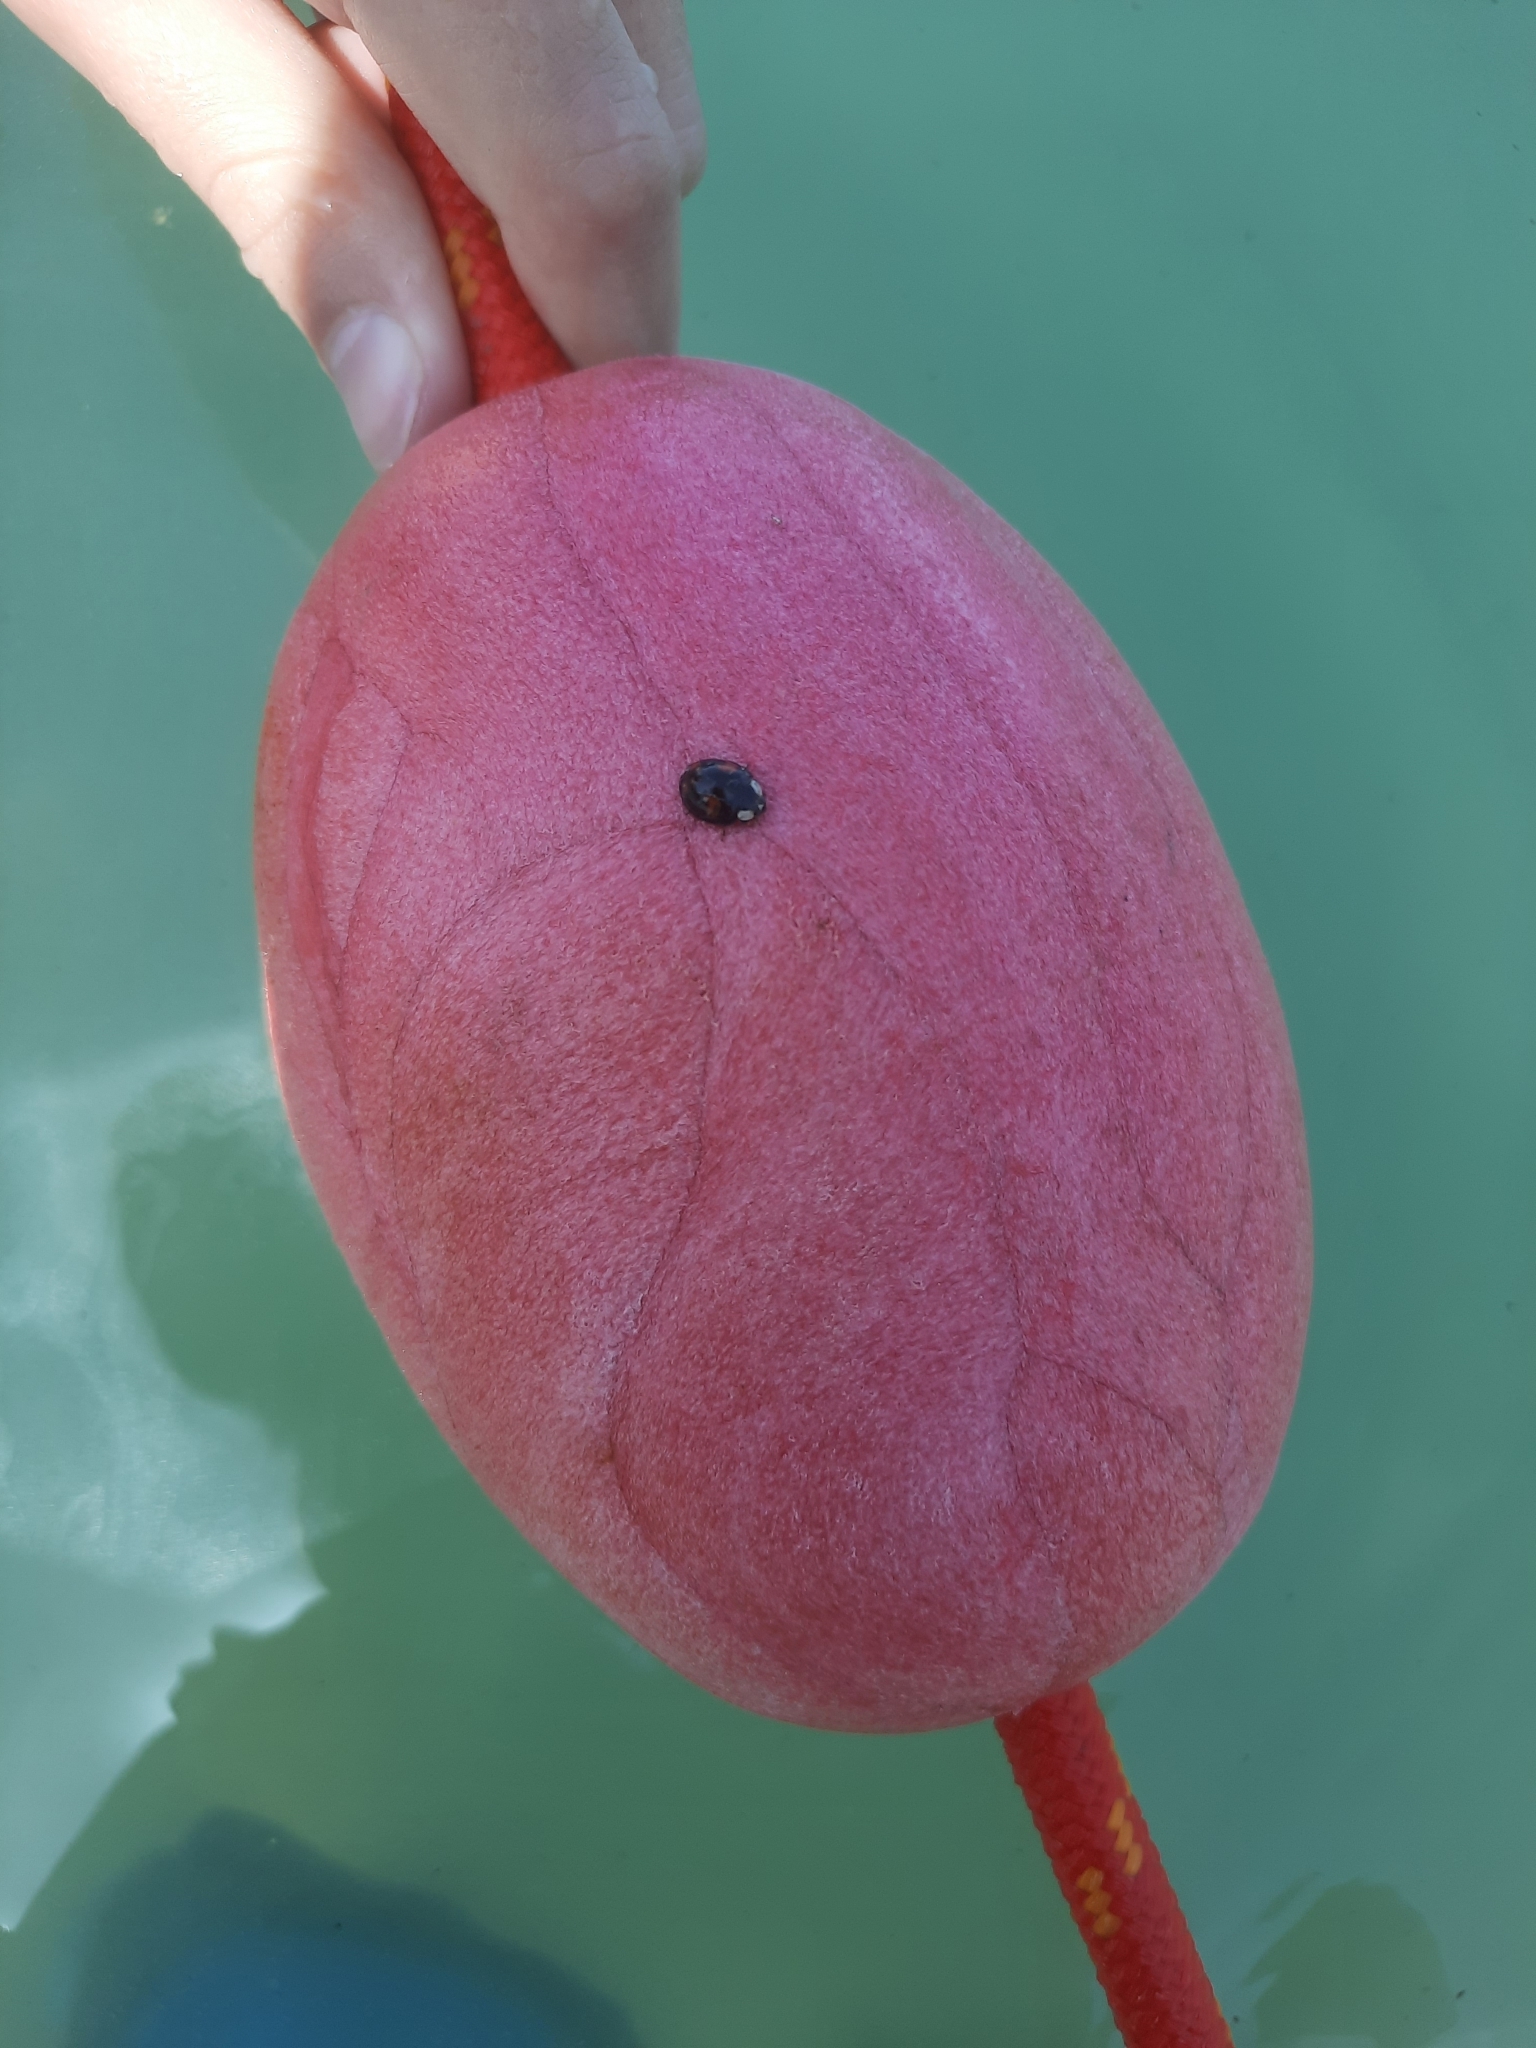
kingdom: Animalia
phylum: Arthropoda
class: Insecta
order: Coleoptera
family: Coccinellidae
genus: Harmonia
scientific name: Harmonia axyridis
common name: Harlequin ladybird
